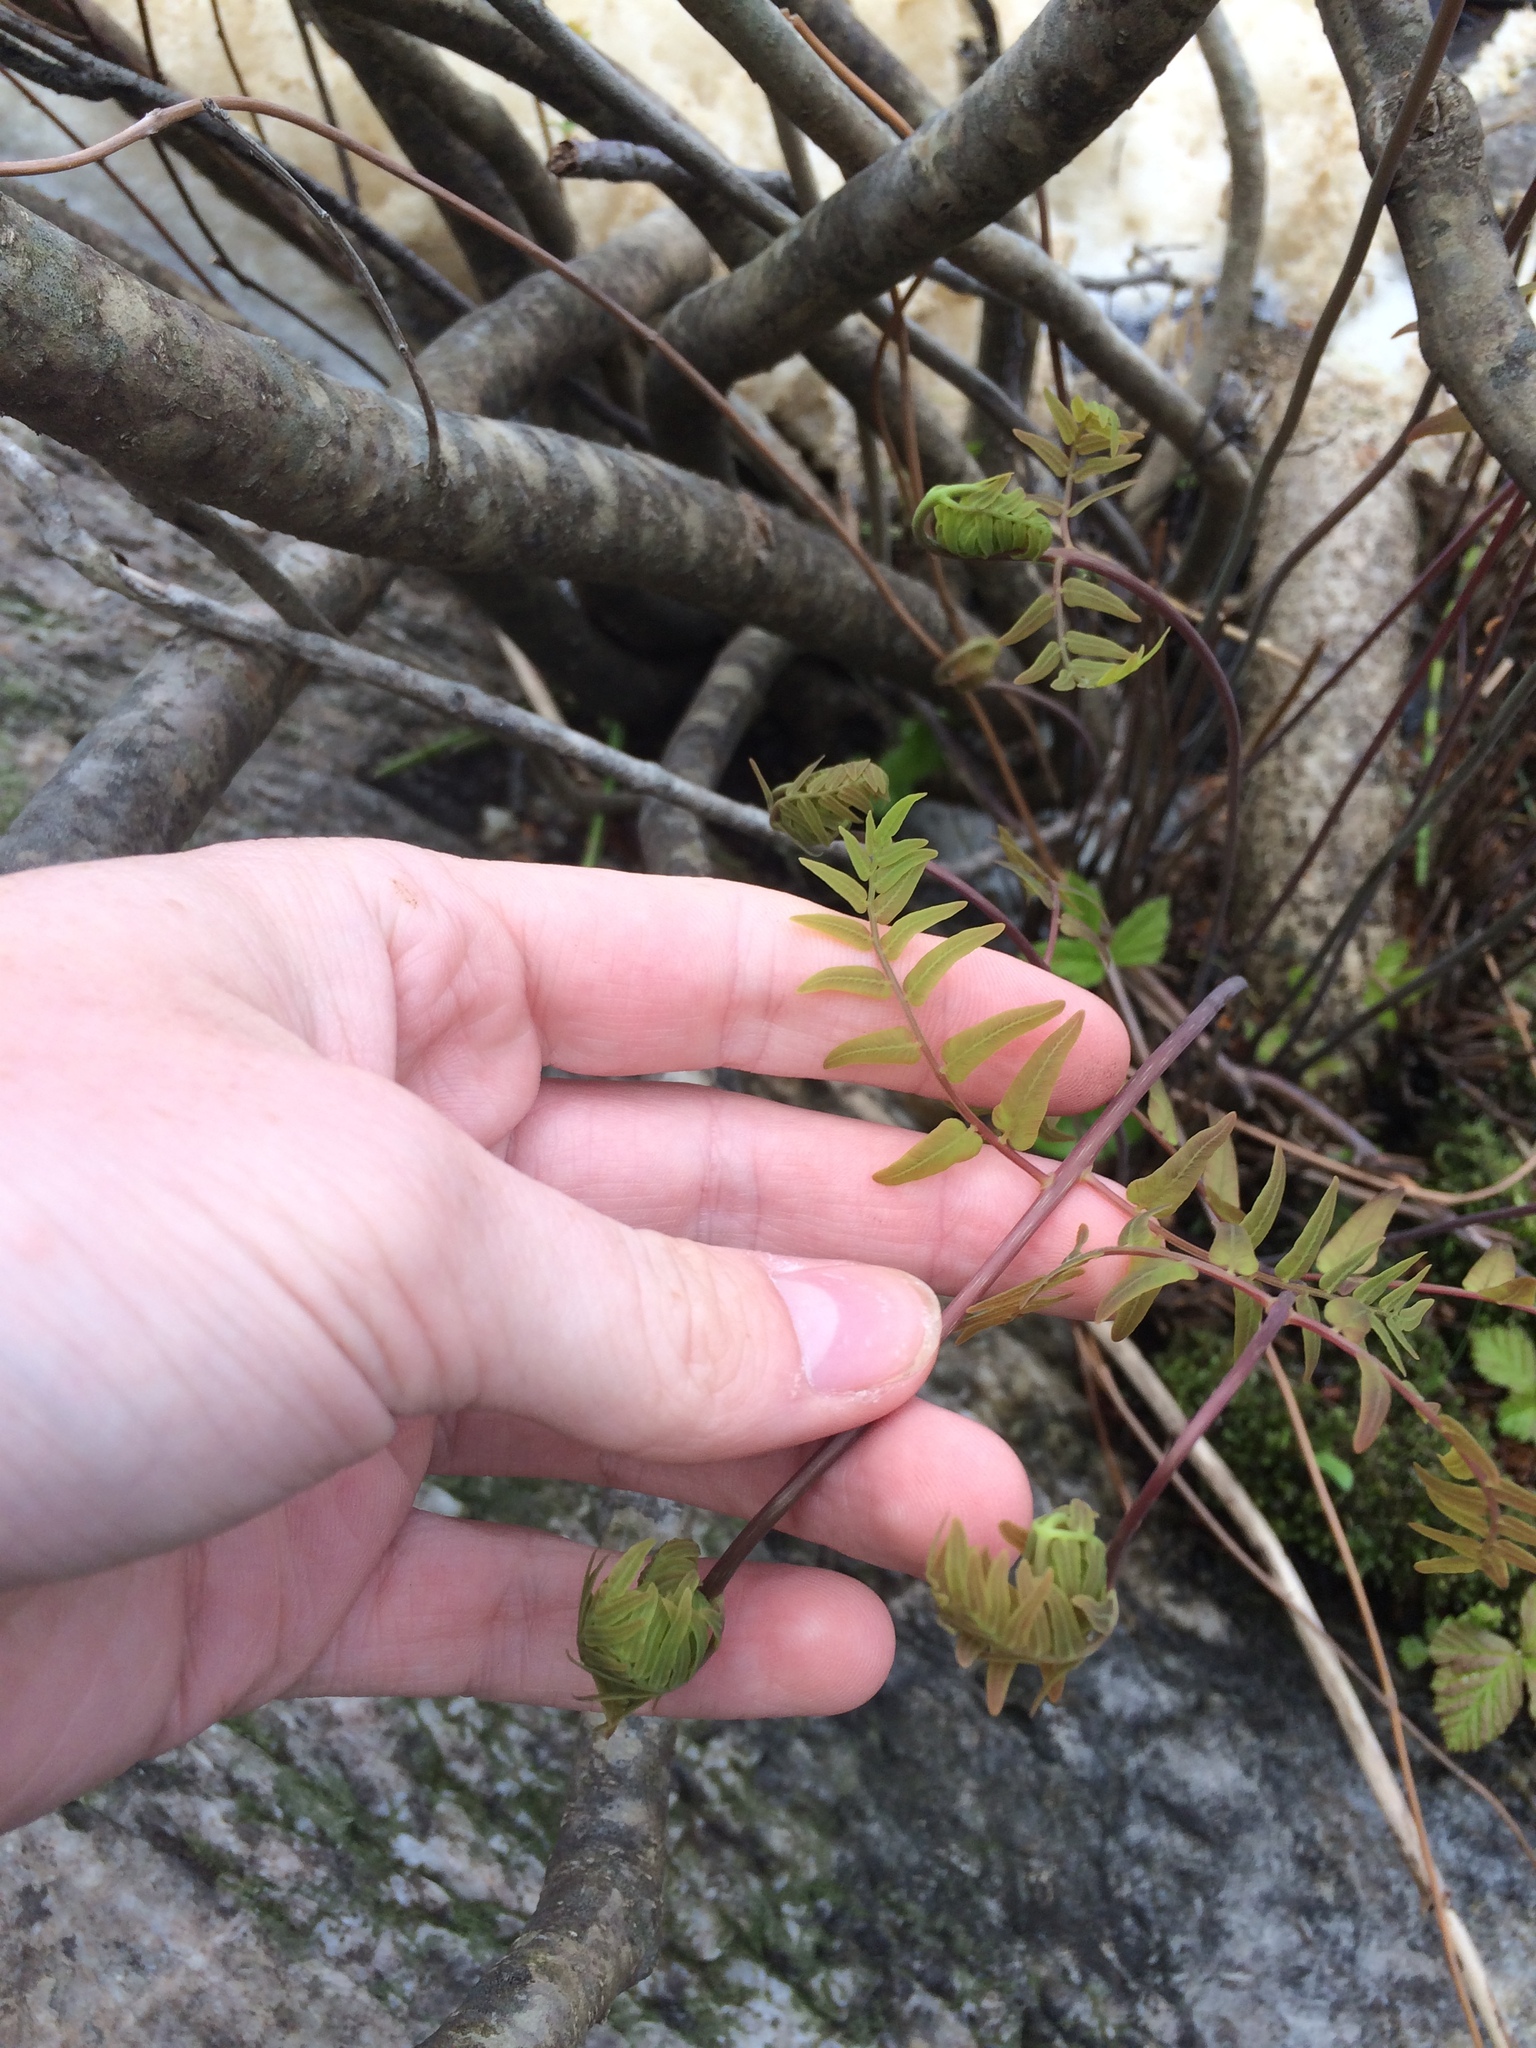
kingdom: Plantae
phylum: Tracheophyta
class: Polypodiopsida
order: Osmundales
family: Osmundaceae
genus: Osmunda
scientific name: Osmunda spectabilis
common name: American royal fern
